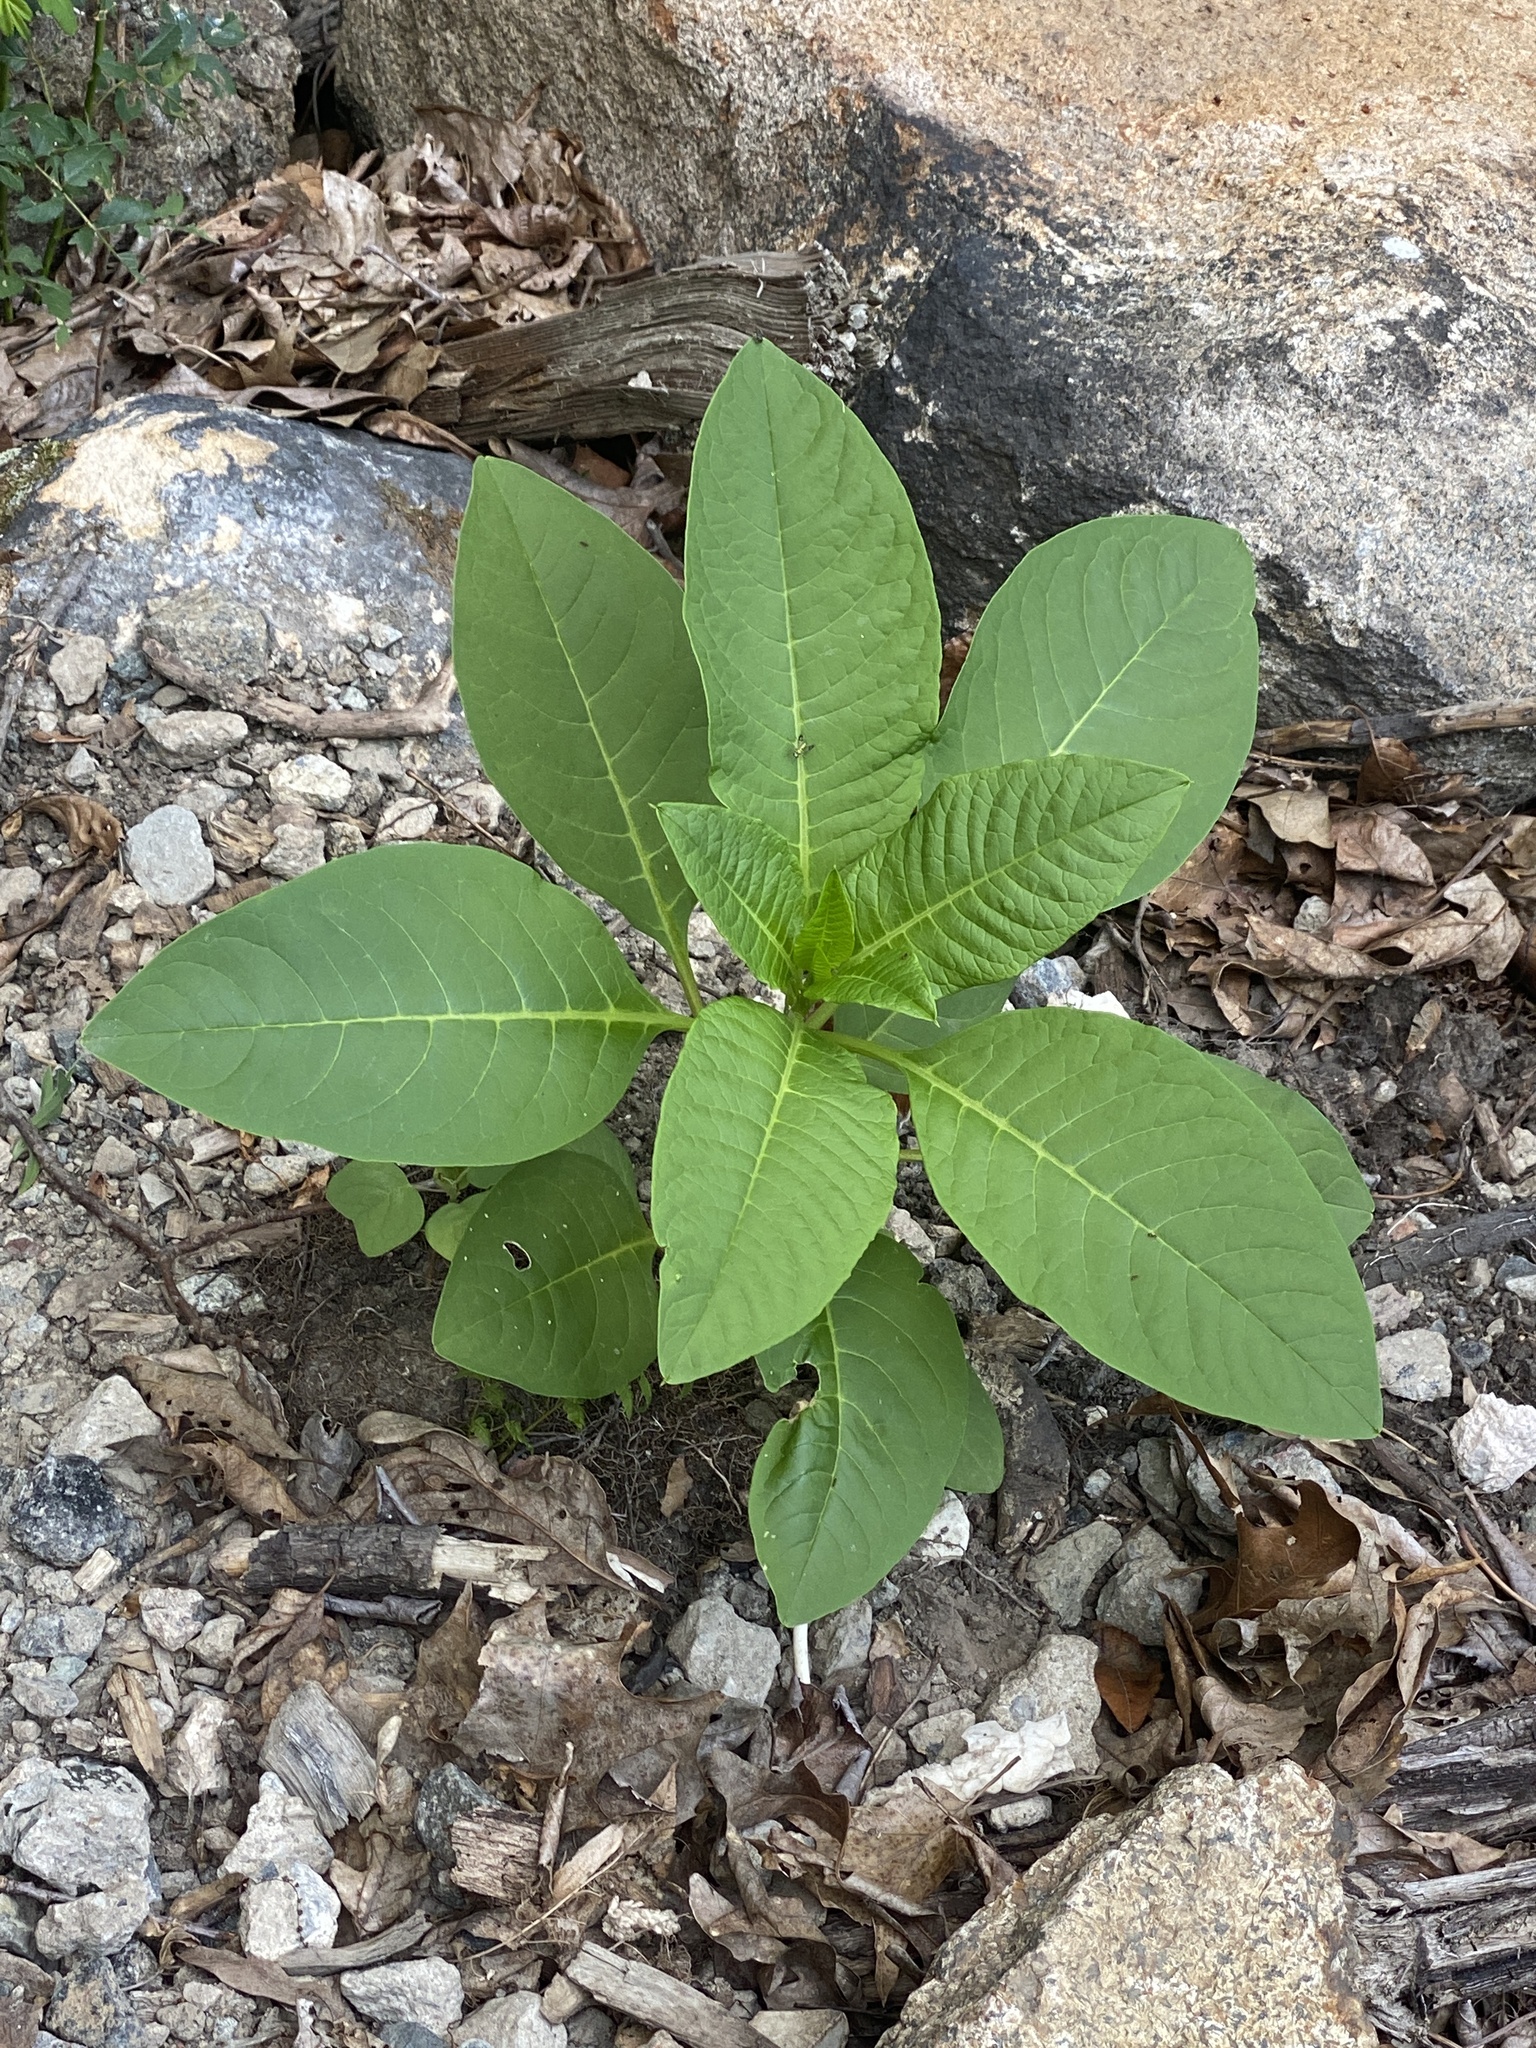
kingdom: Plantae
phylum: Tracheophyta
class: Magnoliopsida
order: Caryophyllales
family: Phytolaccaceae
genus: Phytolacca
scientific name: Phytolacca americana
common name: American pokeweed
